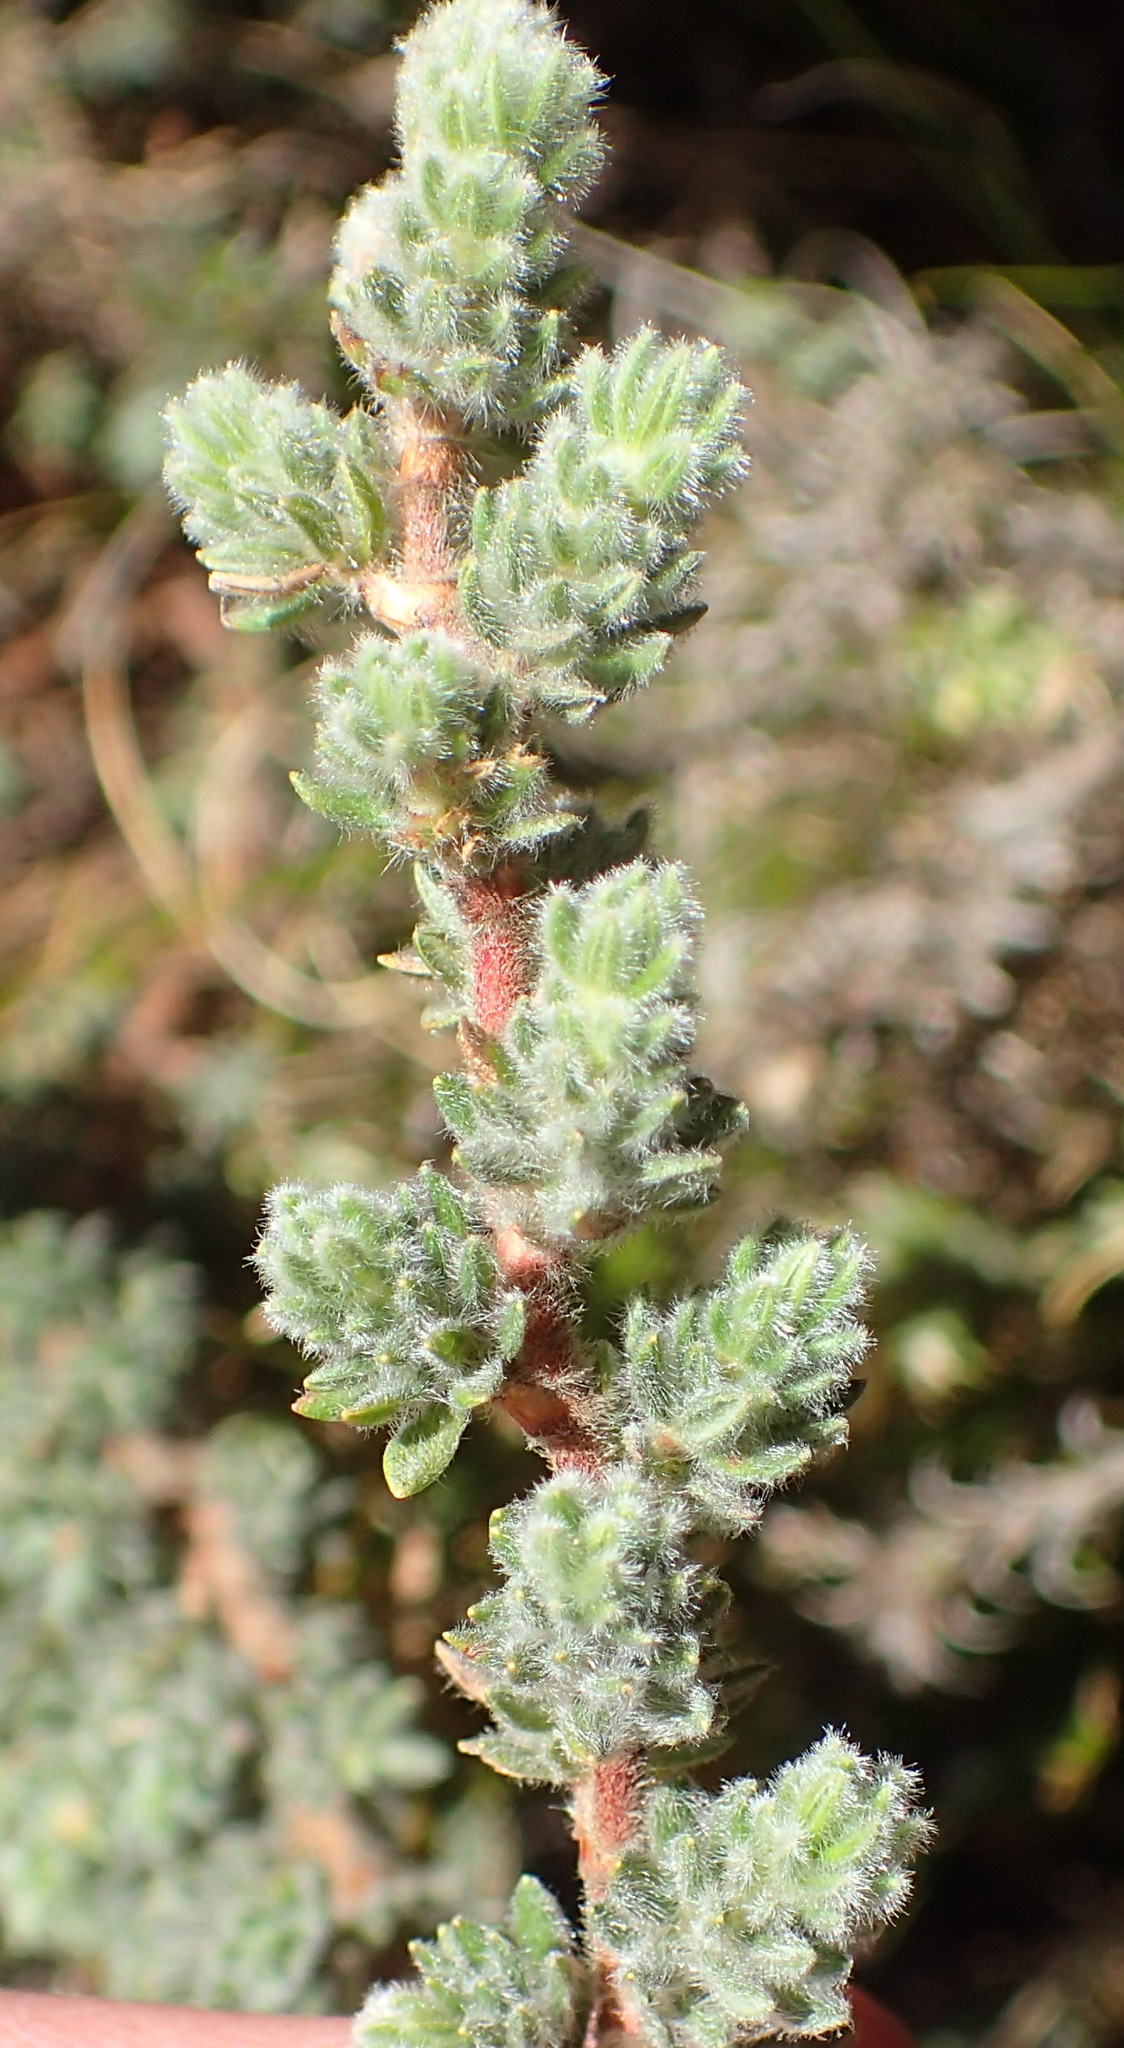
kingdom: Plantae
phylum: Tracheophyta
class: Magnoliopsida
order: Rosales
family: Rosaceae
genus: Cliffortia
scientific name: Cliffortia eriocephalina
